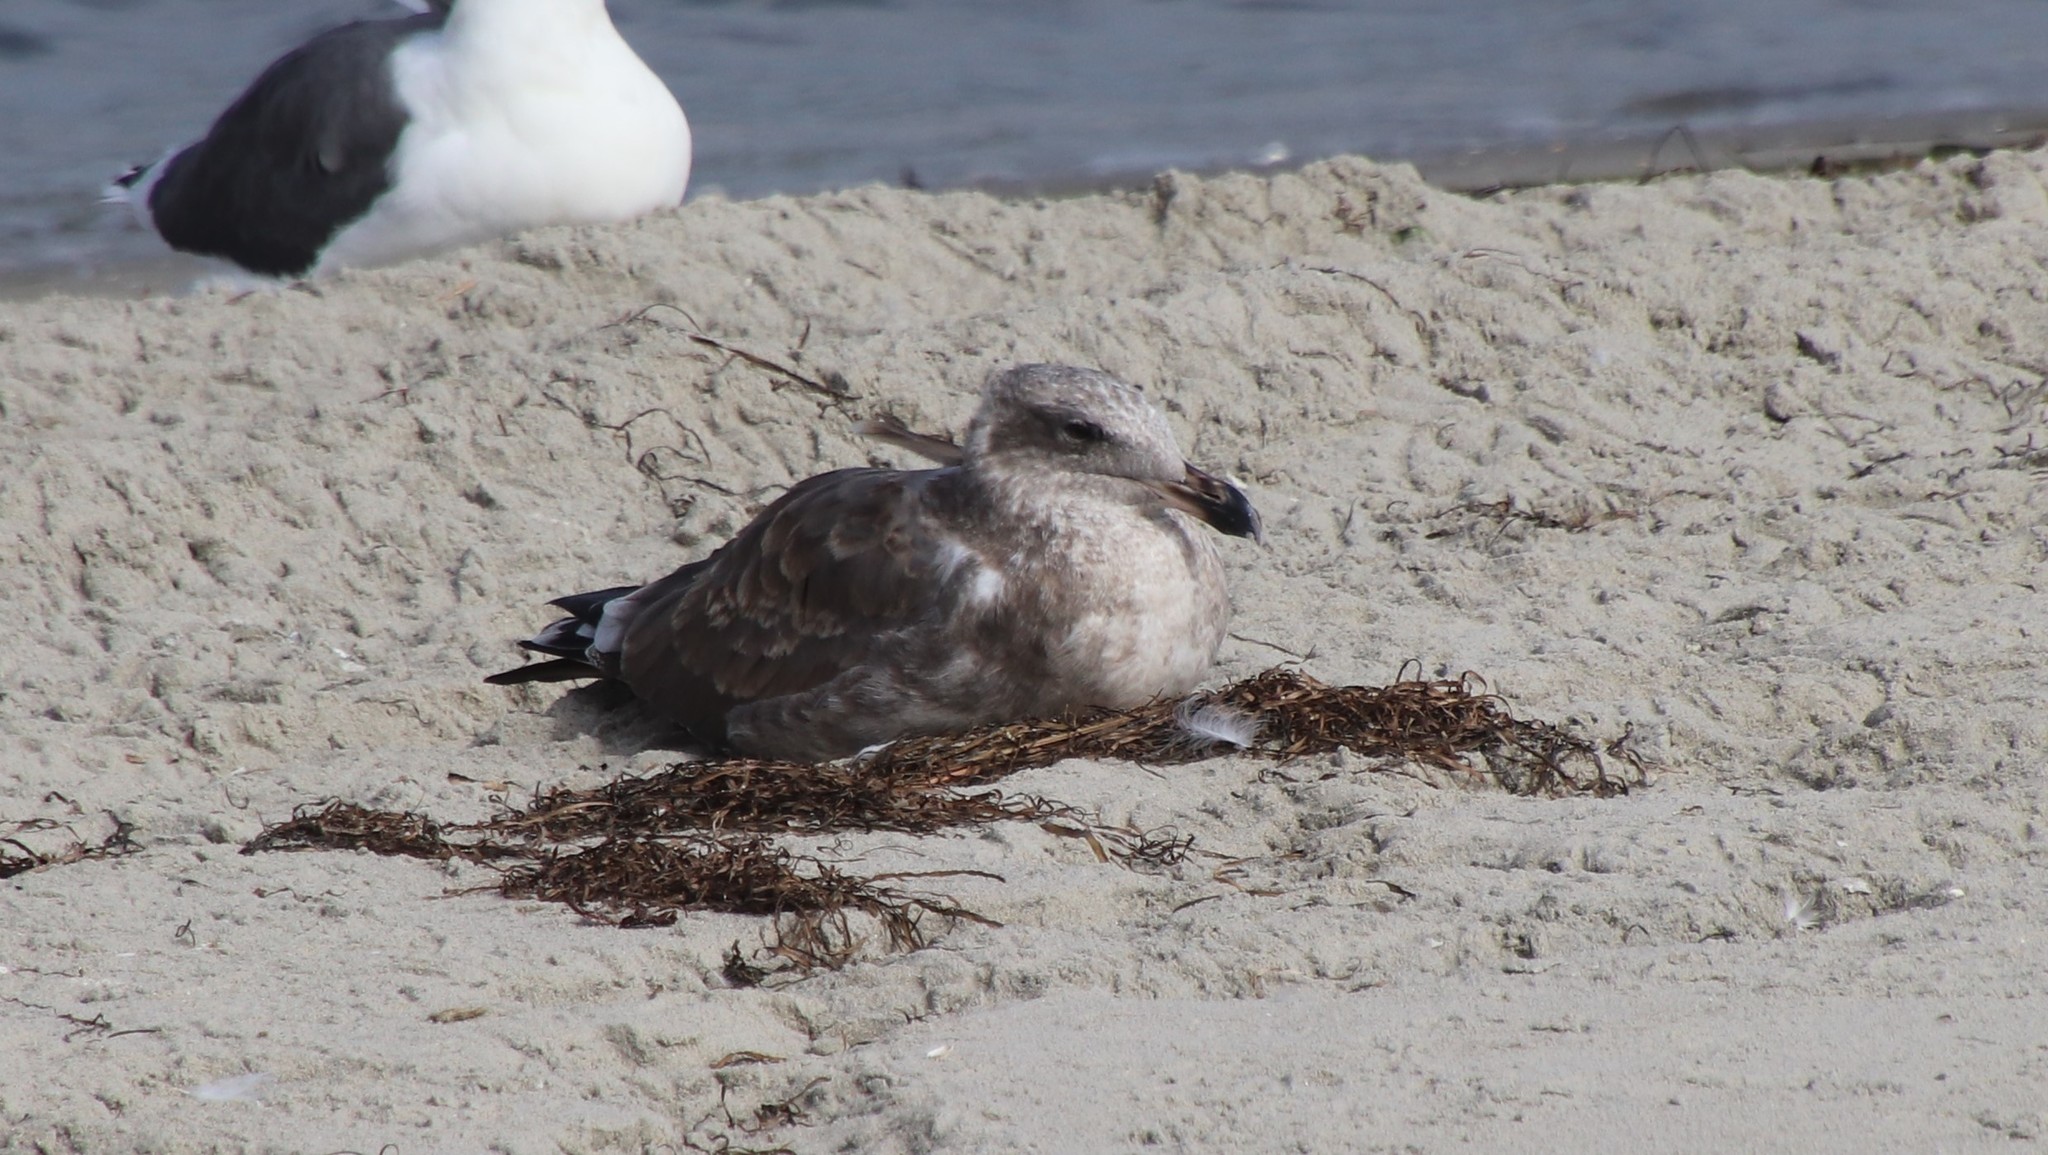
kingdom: Animalia
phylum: Chordata
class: Aves
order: Charadriiformes
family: Laridae
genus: Larus
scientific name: Larus occidentalis
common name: Western gull
